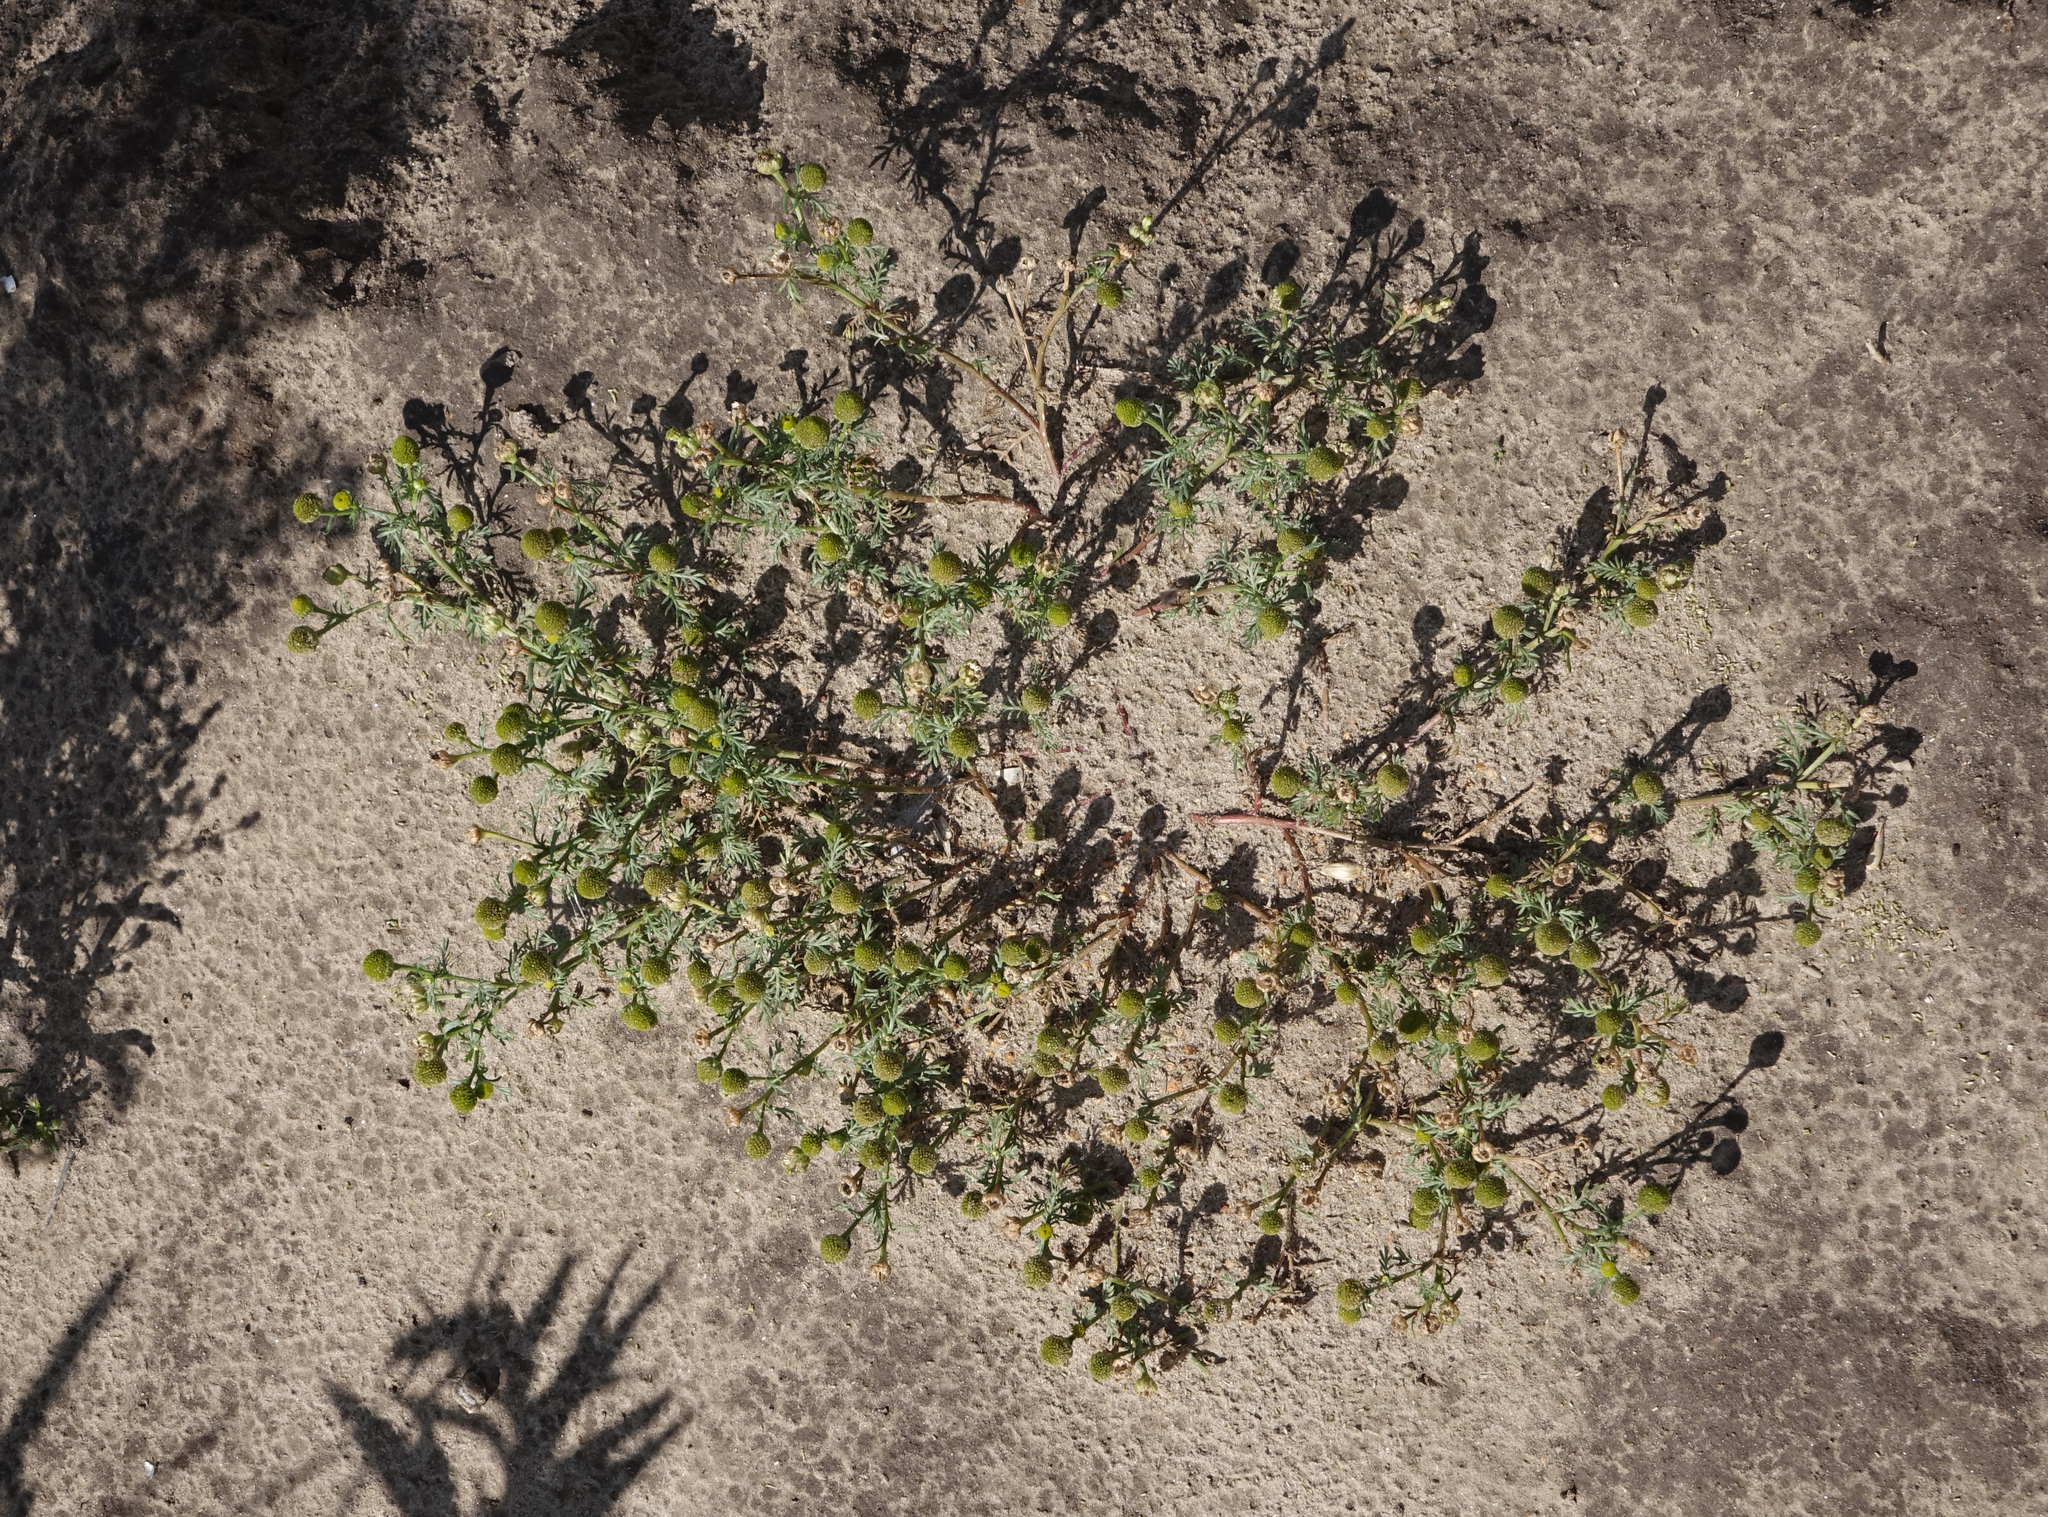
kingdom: Plantae
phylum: Tracheophyta
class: Magnoliopsida
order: Asterales
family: Asteraceae
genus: Matricaria
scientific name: Matricaria discoidea
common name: Disc mayweed
